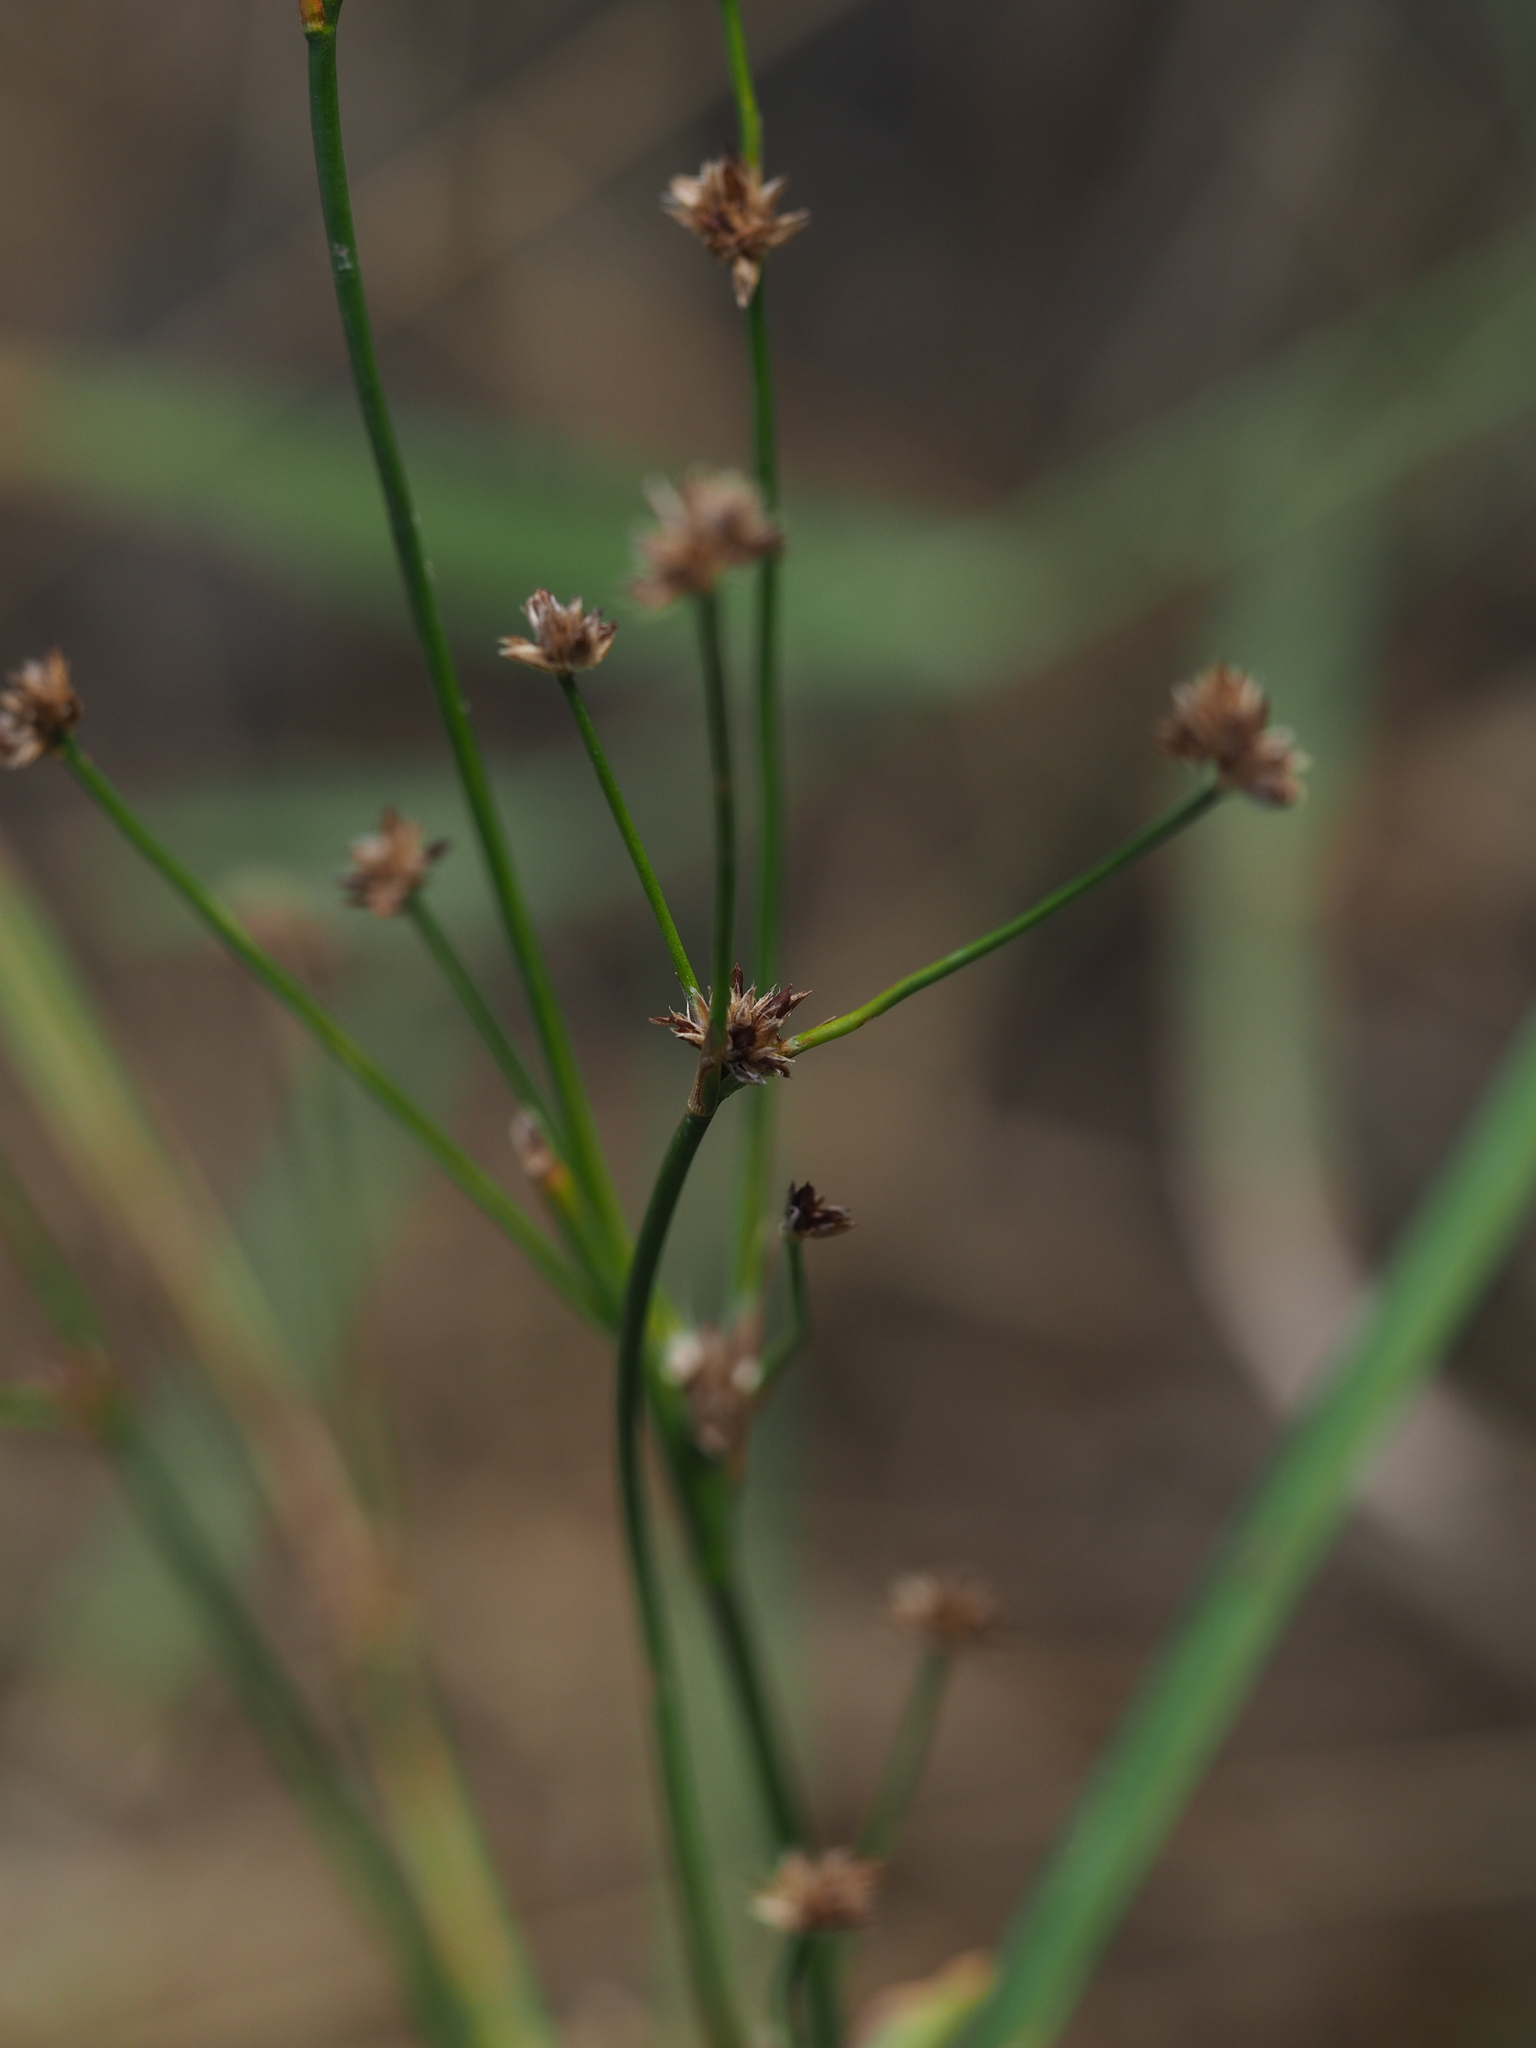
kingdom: Plantae
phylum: Tracheophyta
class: Liliopsida
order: Poales
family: Juncaceae
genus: Juncus
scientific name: Juncus articulatus
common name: Jointed rush
